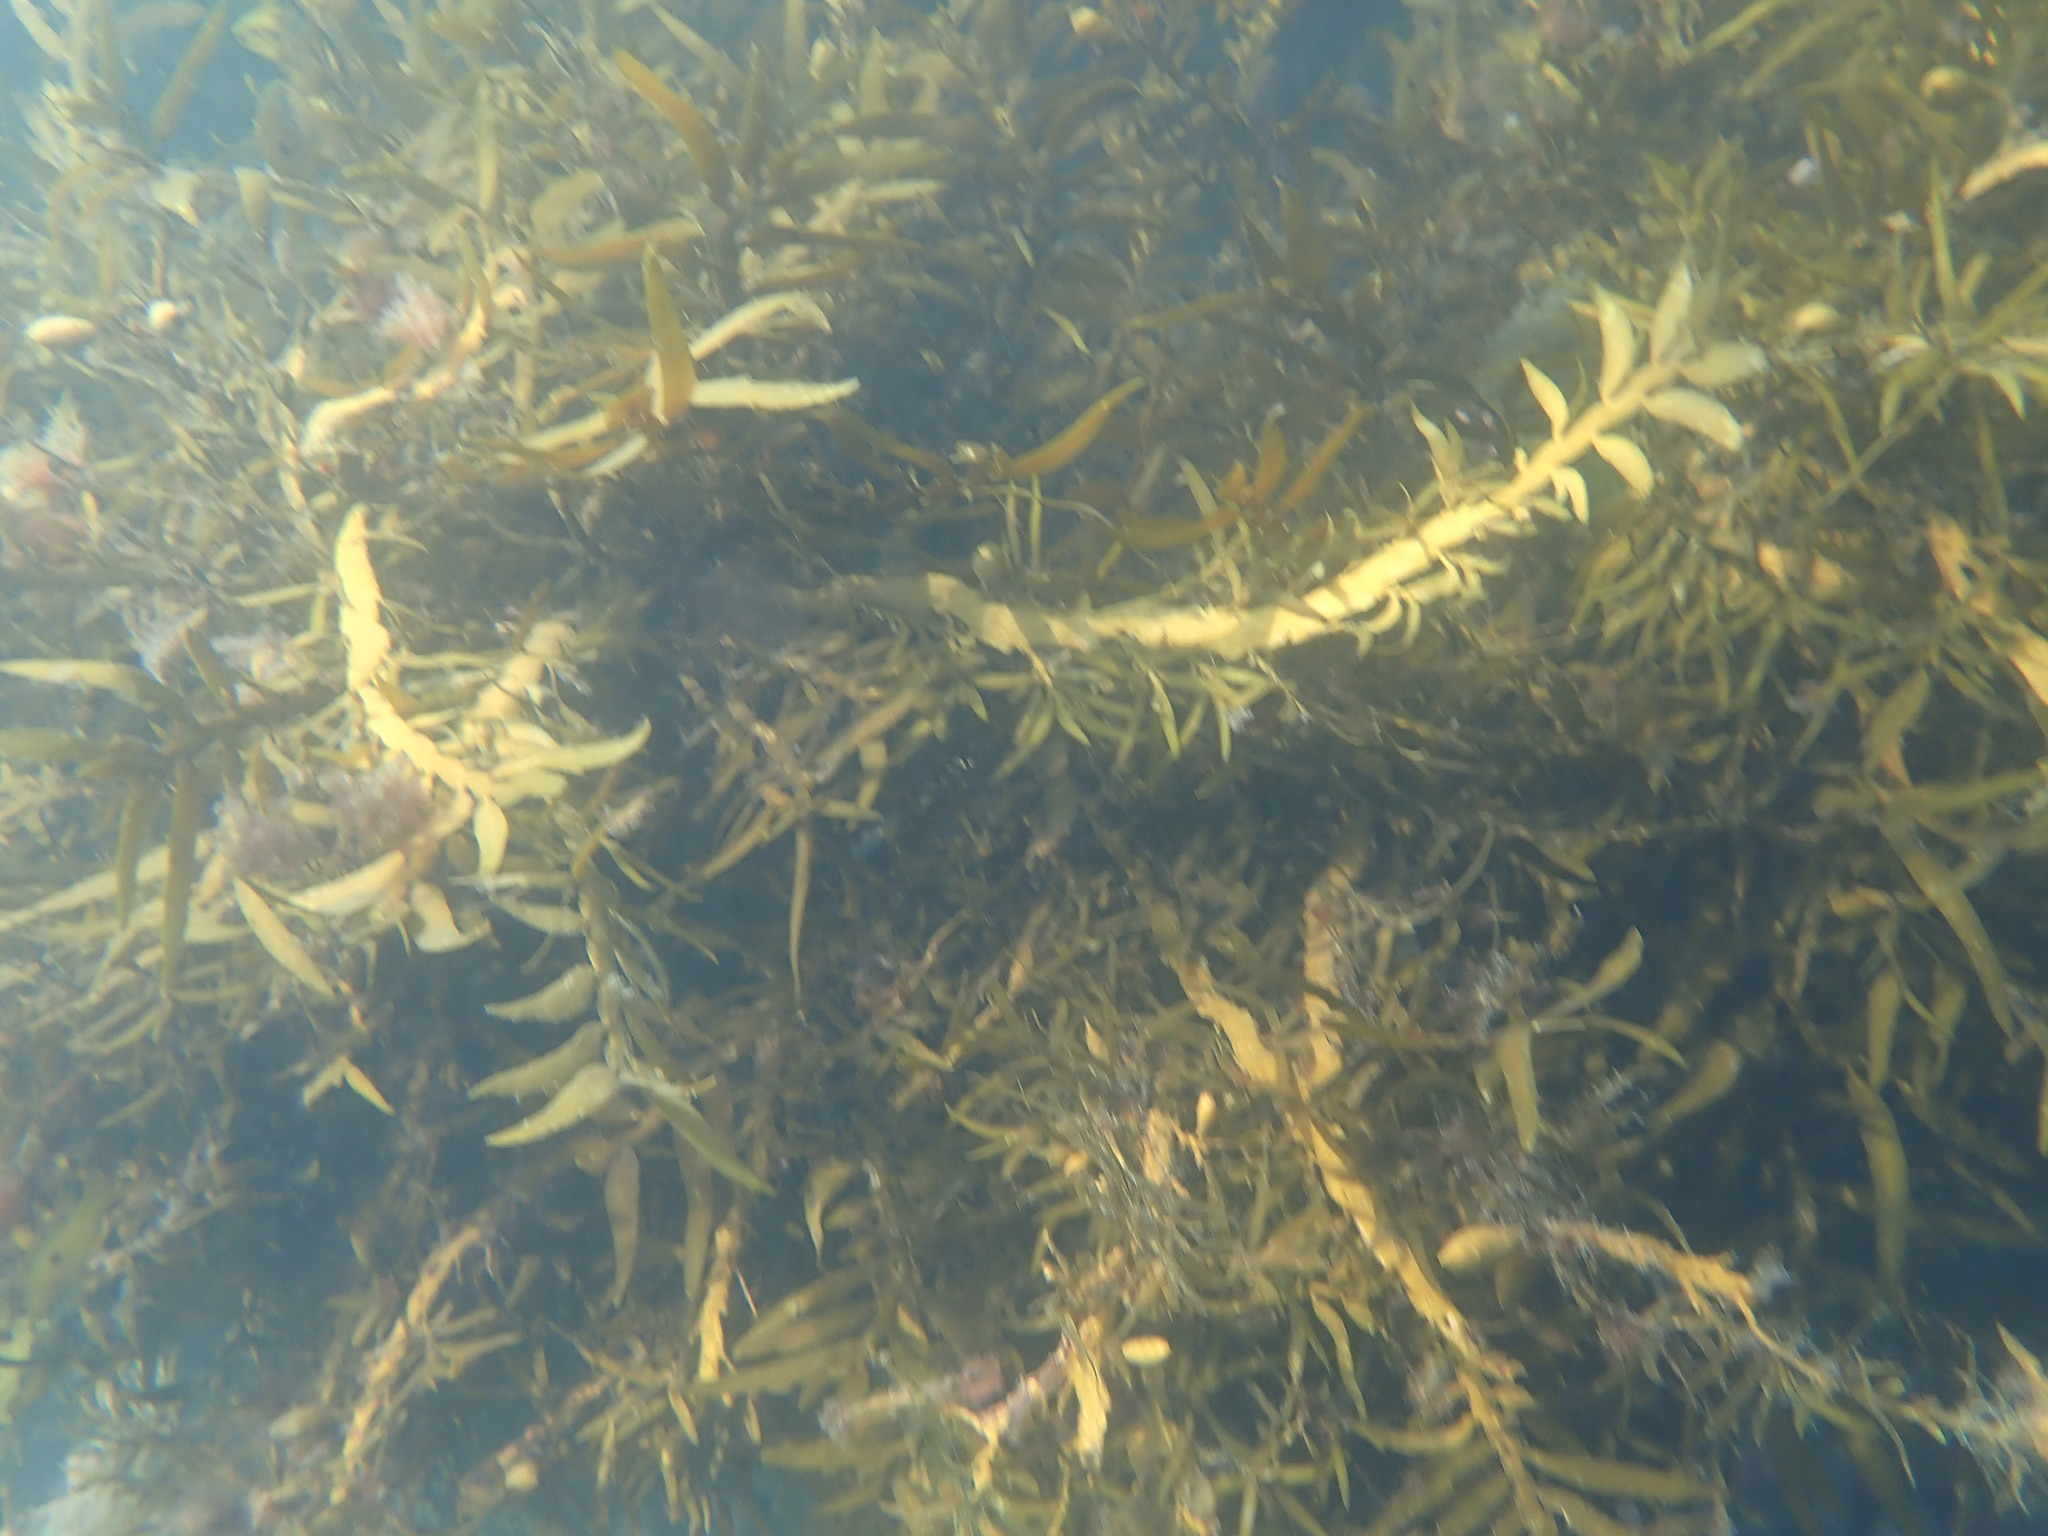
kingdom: Chromista
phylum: Ochrophyta
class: Phaeophyceae
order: Fucales
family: Sargassaceae
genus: Carpophyllum
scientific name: Carpophyllum maschalocarpum
